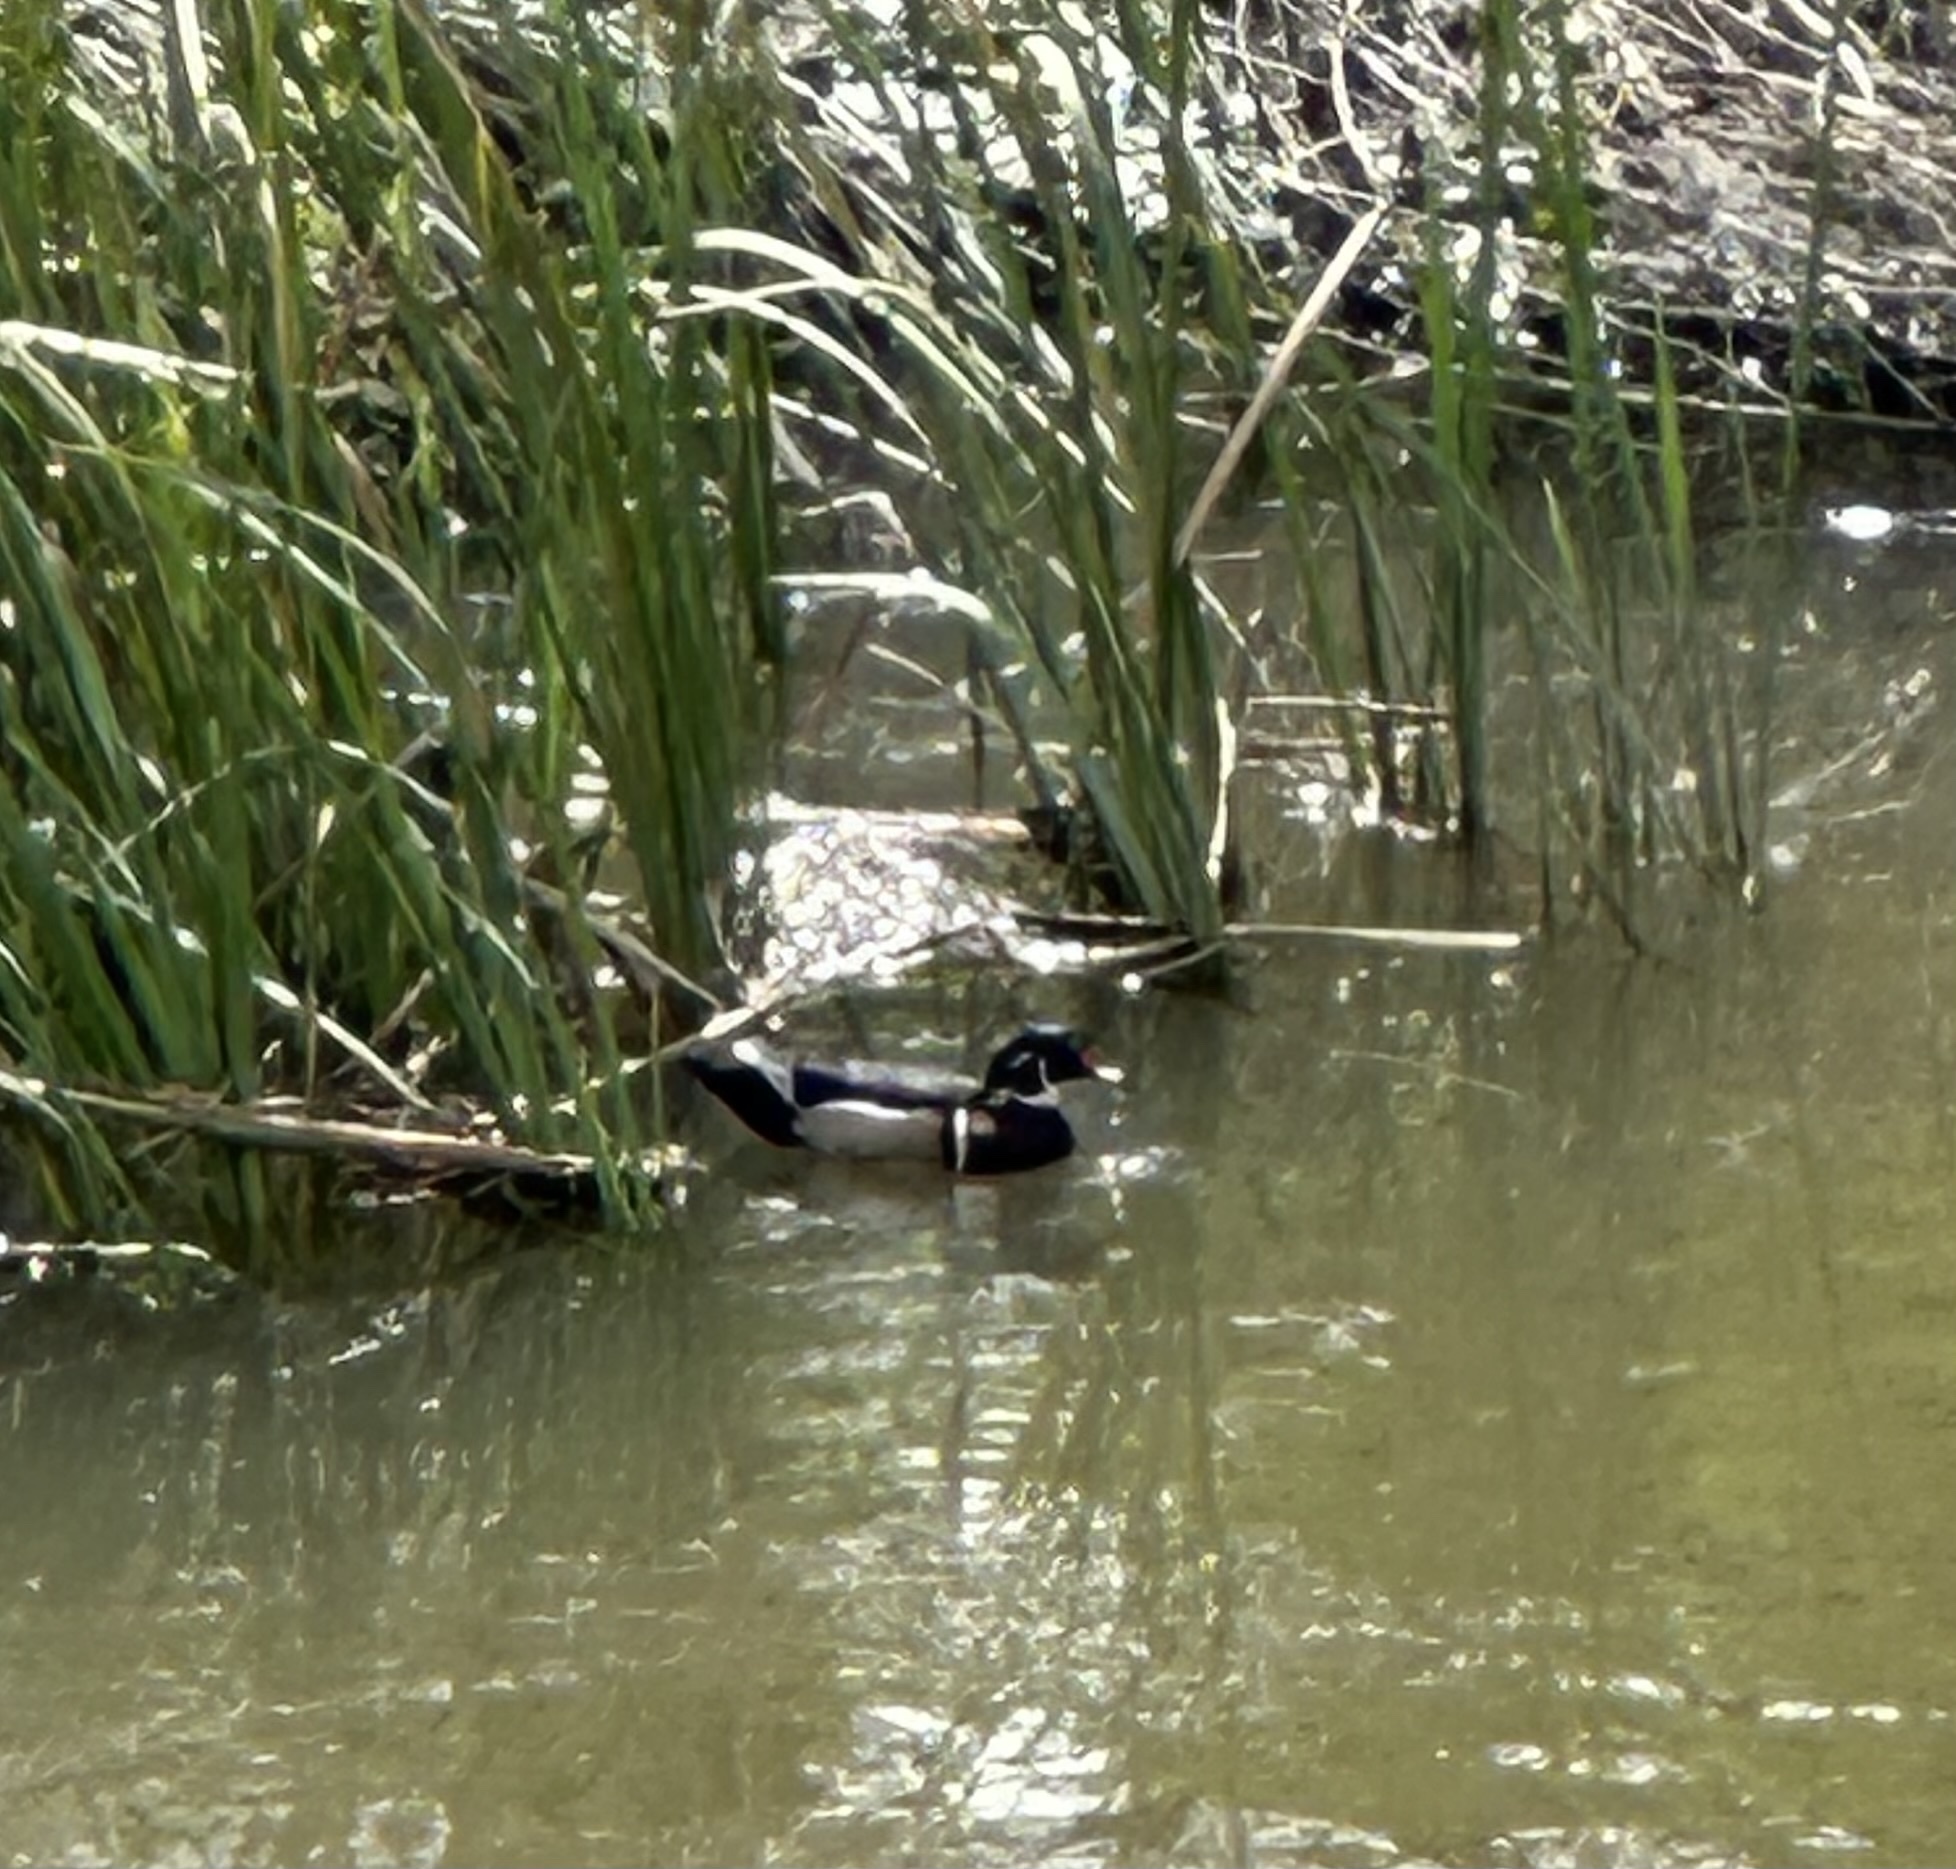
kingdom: Animalia
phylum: Chordata
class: Aves
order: Anseriformes
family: Anatidae
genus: Aix
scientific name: Aix sponsa
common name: Wood duck
